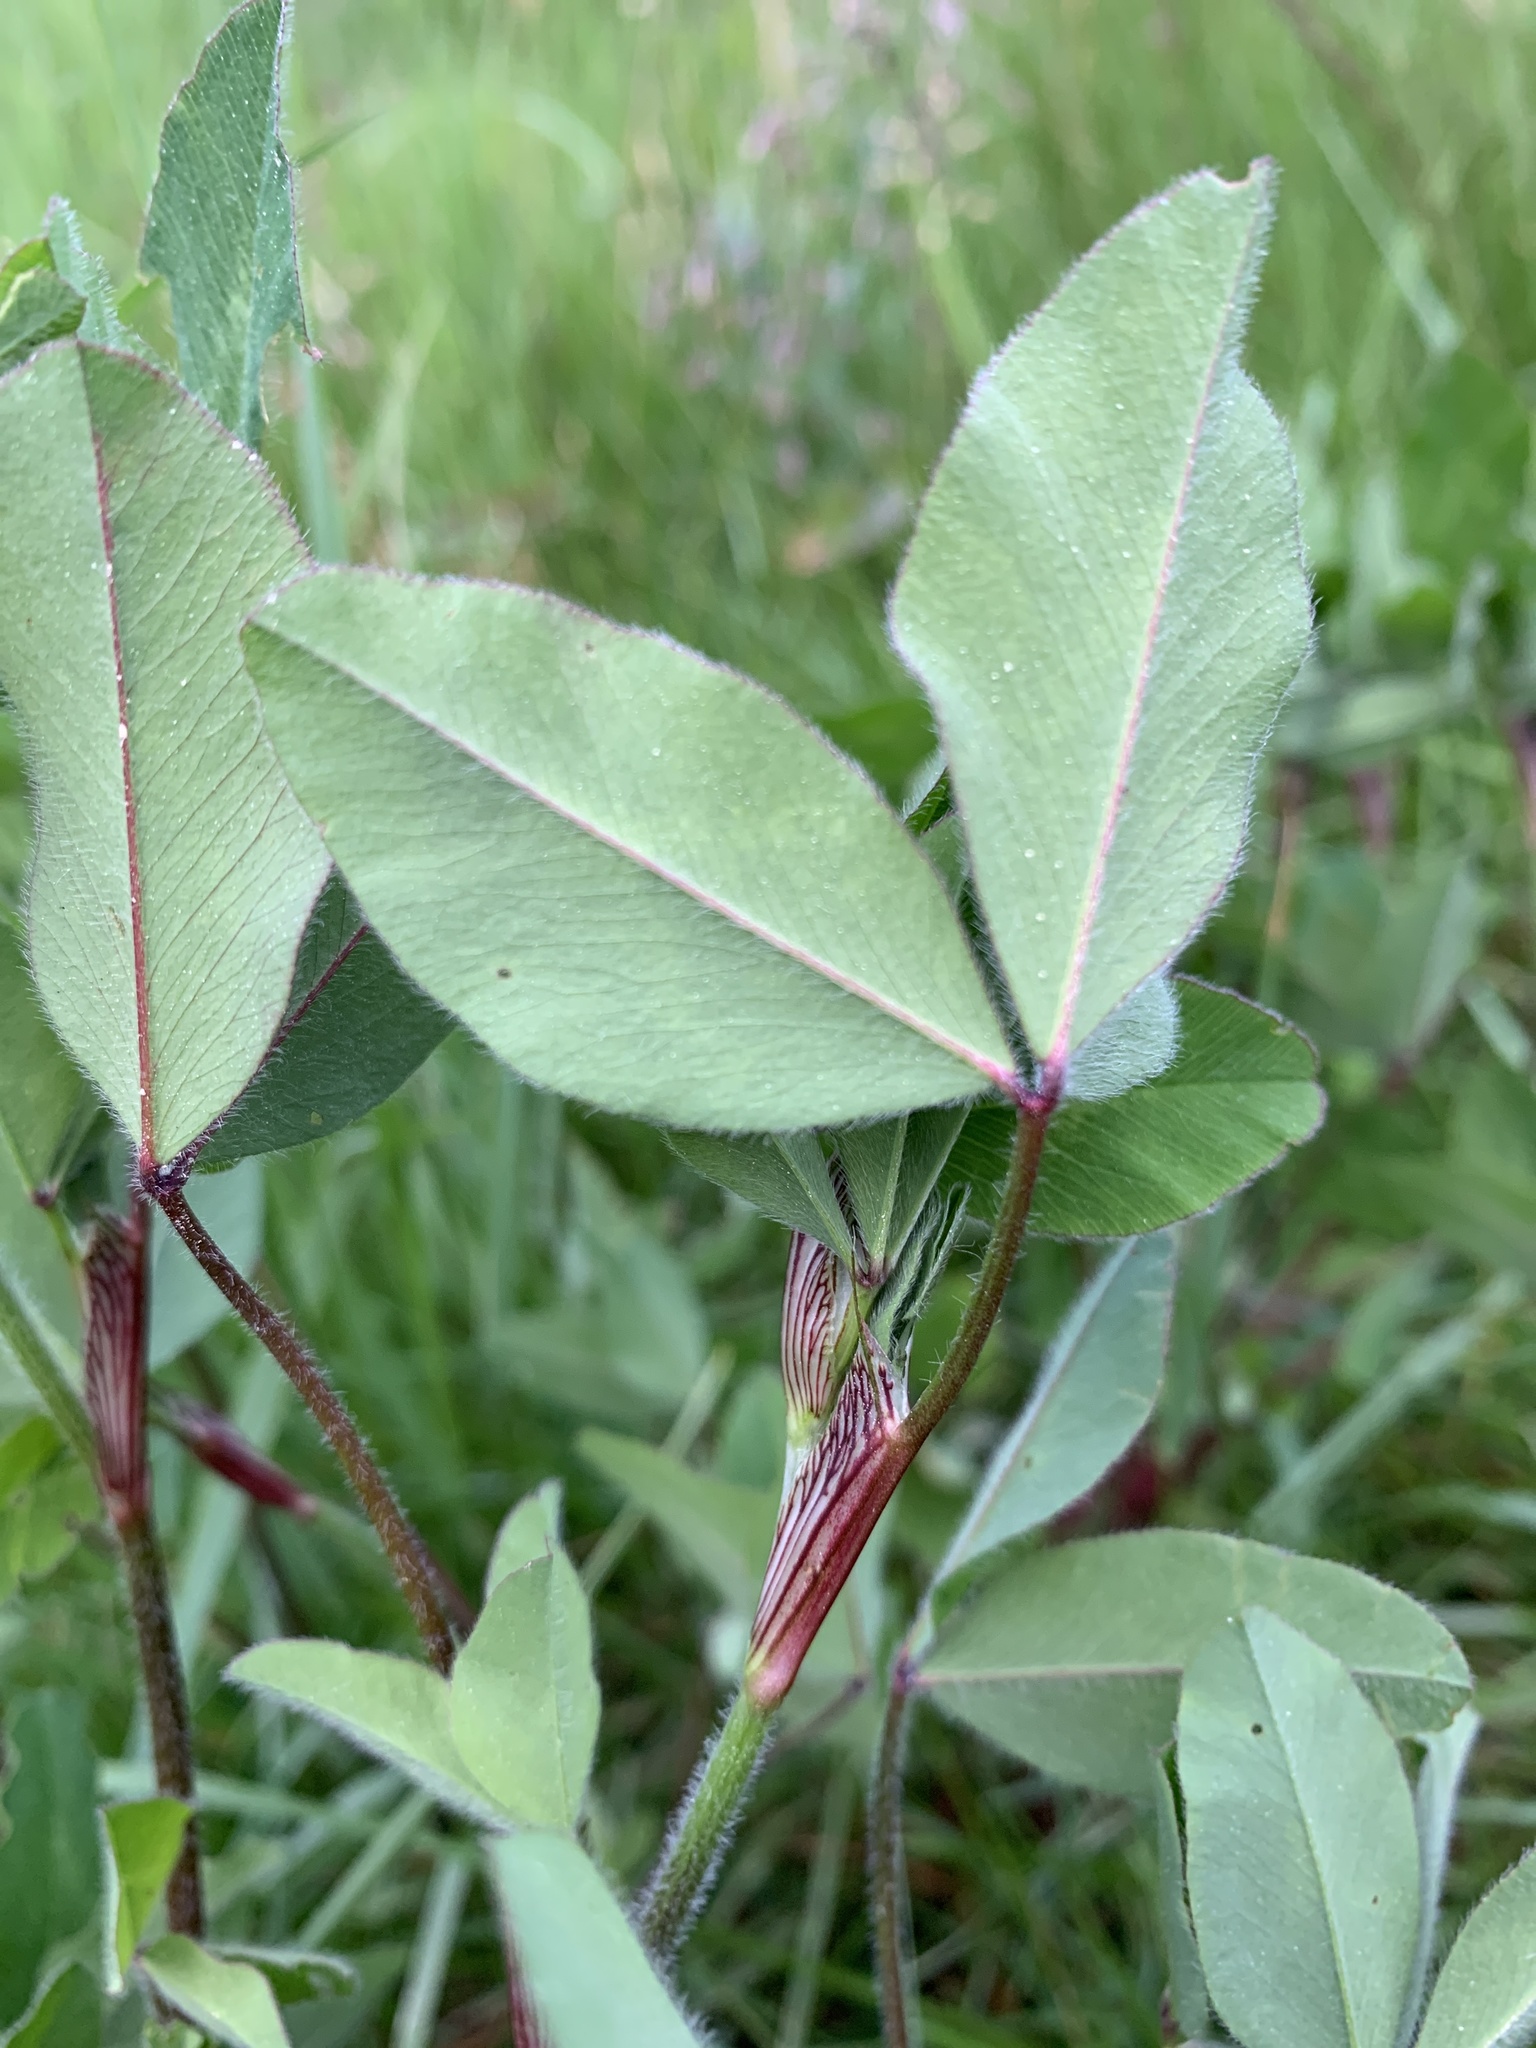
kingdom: Plantae
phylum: Tracheophyta
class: Magnoliopsida
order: Fabales
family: Fabaceae
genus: Trifolium
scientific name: Trifolium pratense
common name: Red clover
